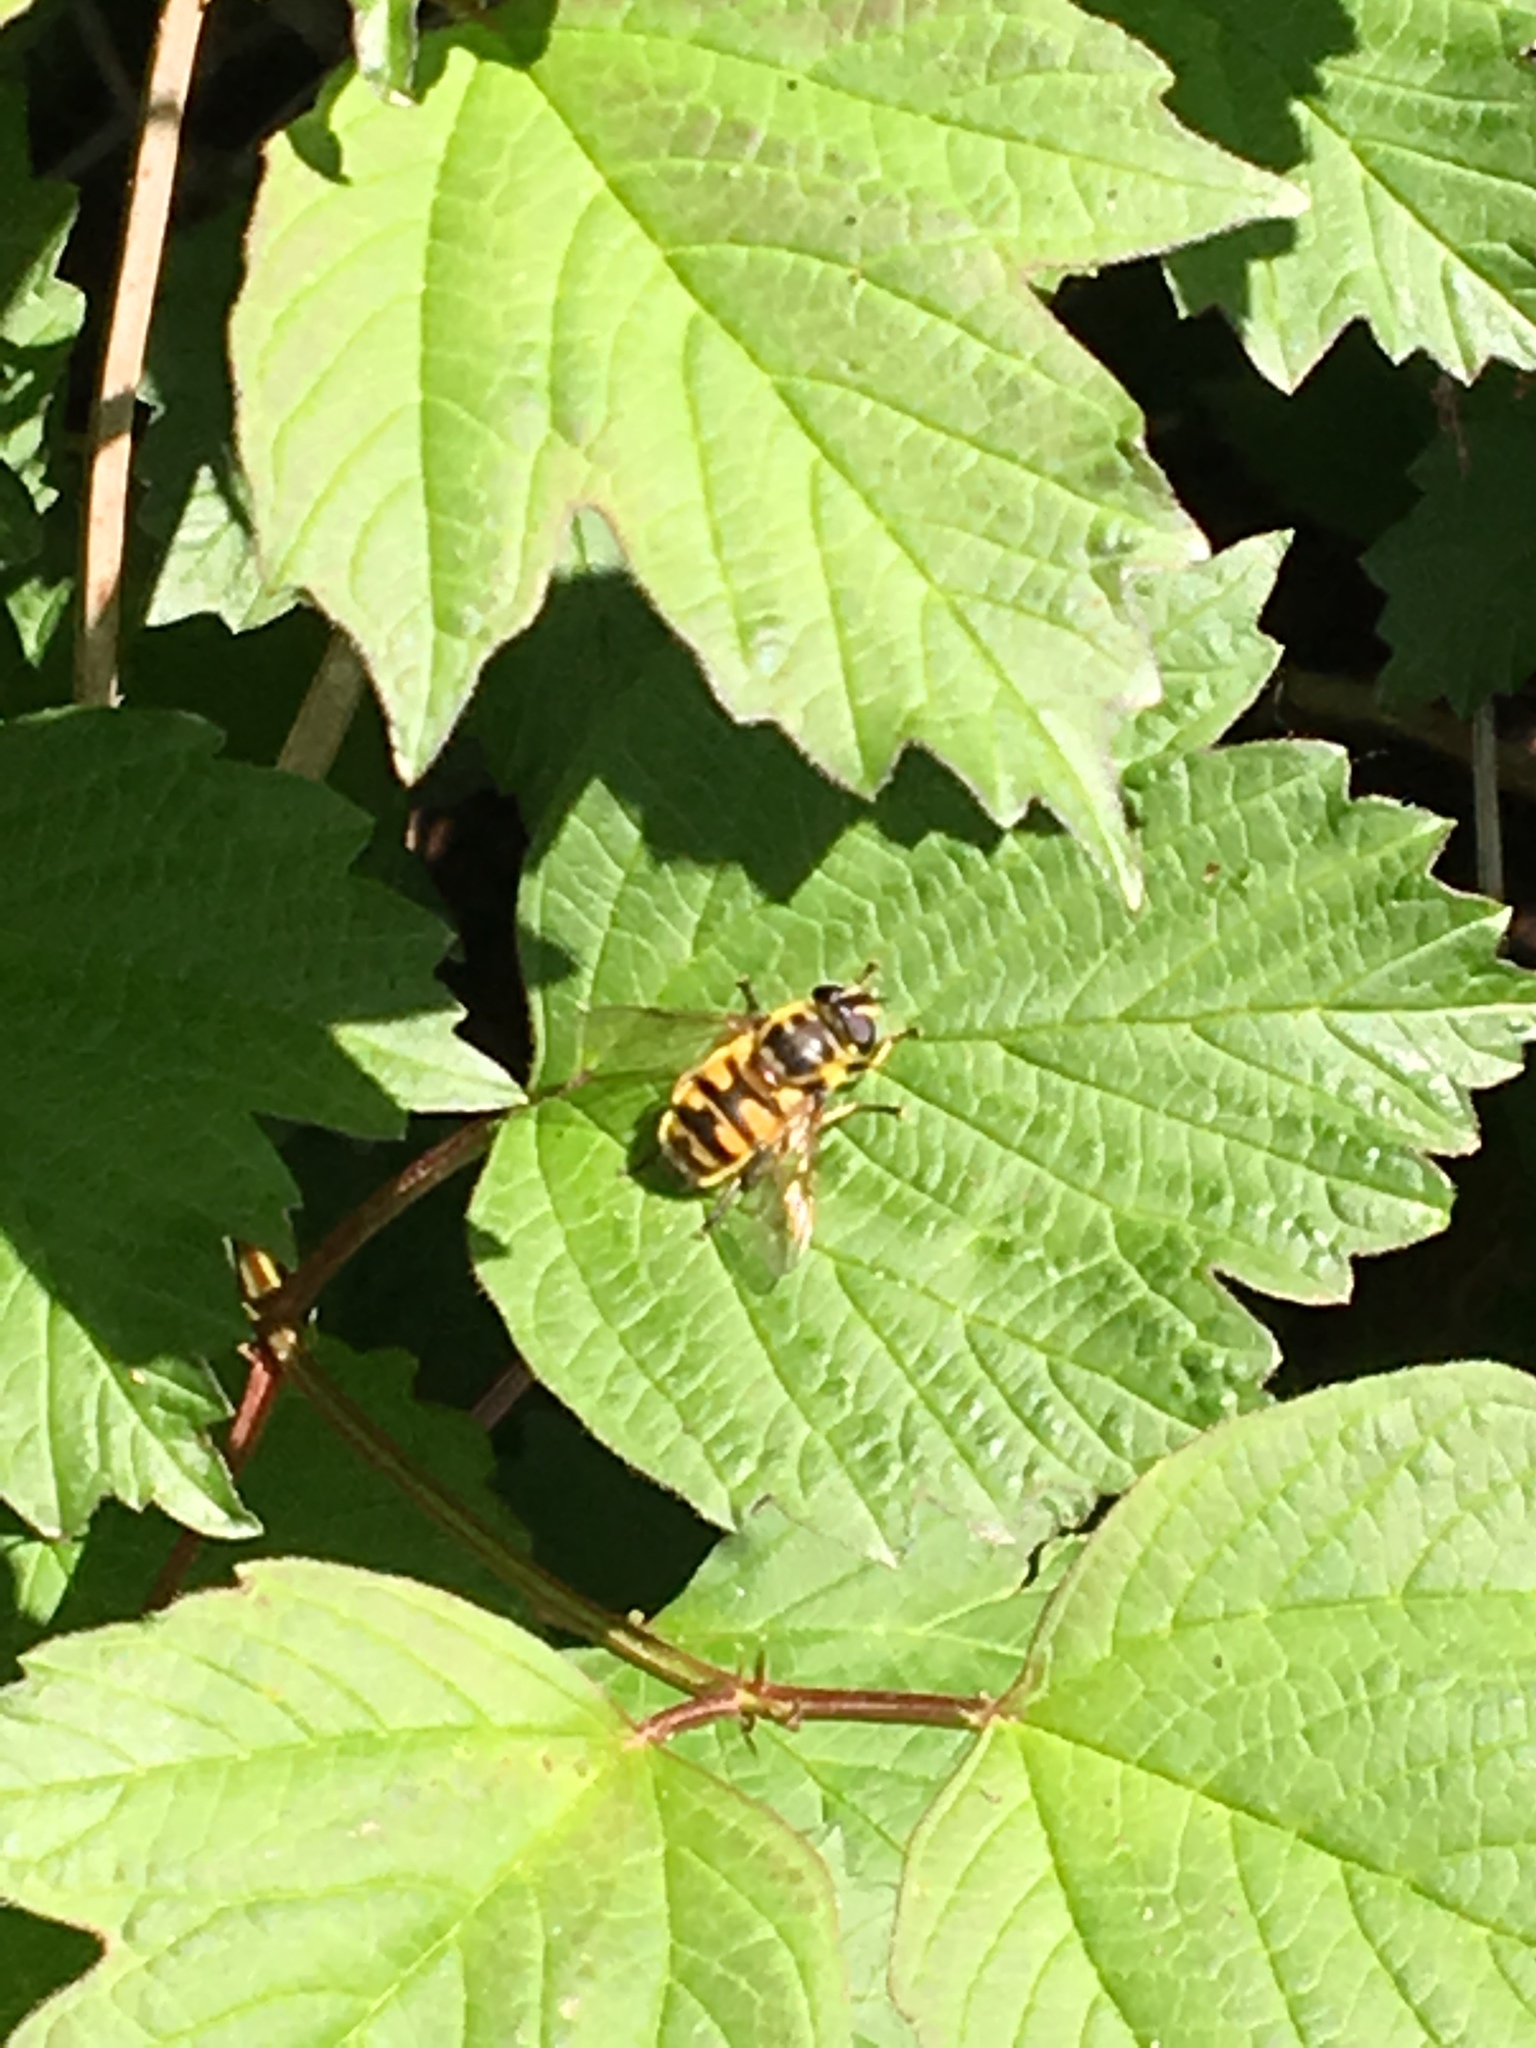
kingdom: Animalia
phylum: Arthropoda
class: Insecta
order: Diptera
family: Syrphidae
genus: Myathropa
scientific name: Myathropa florea
